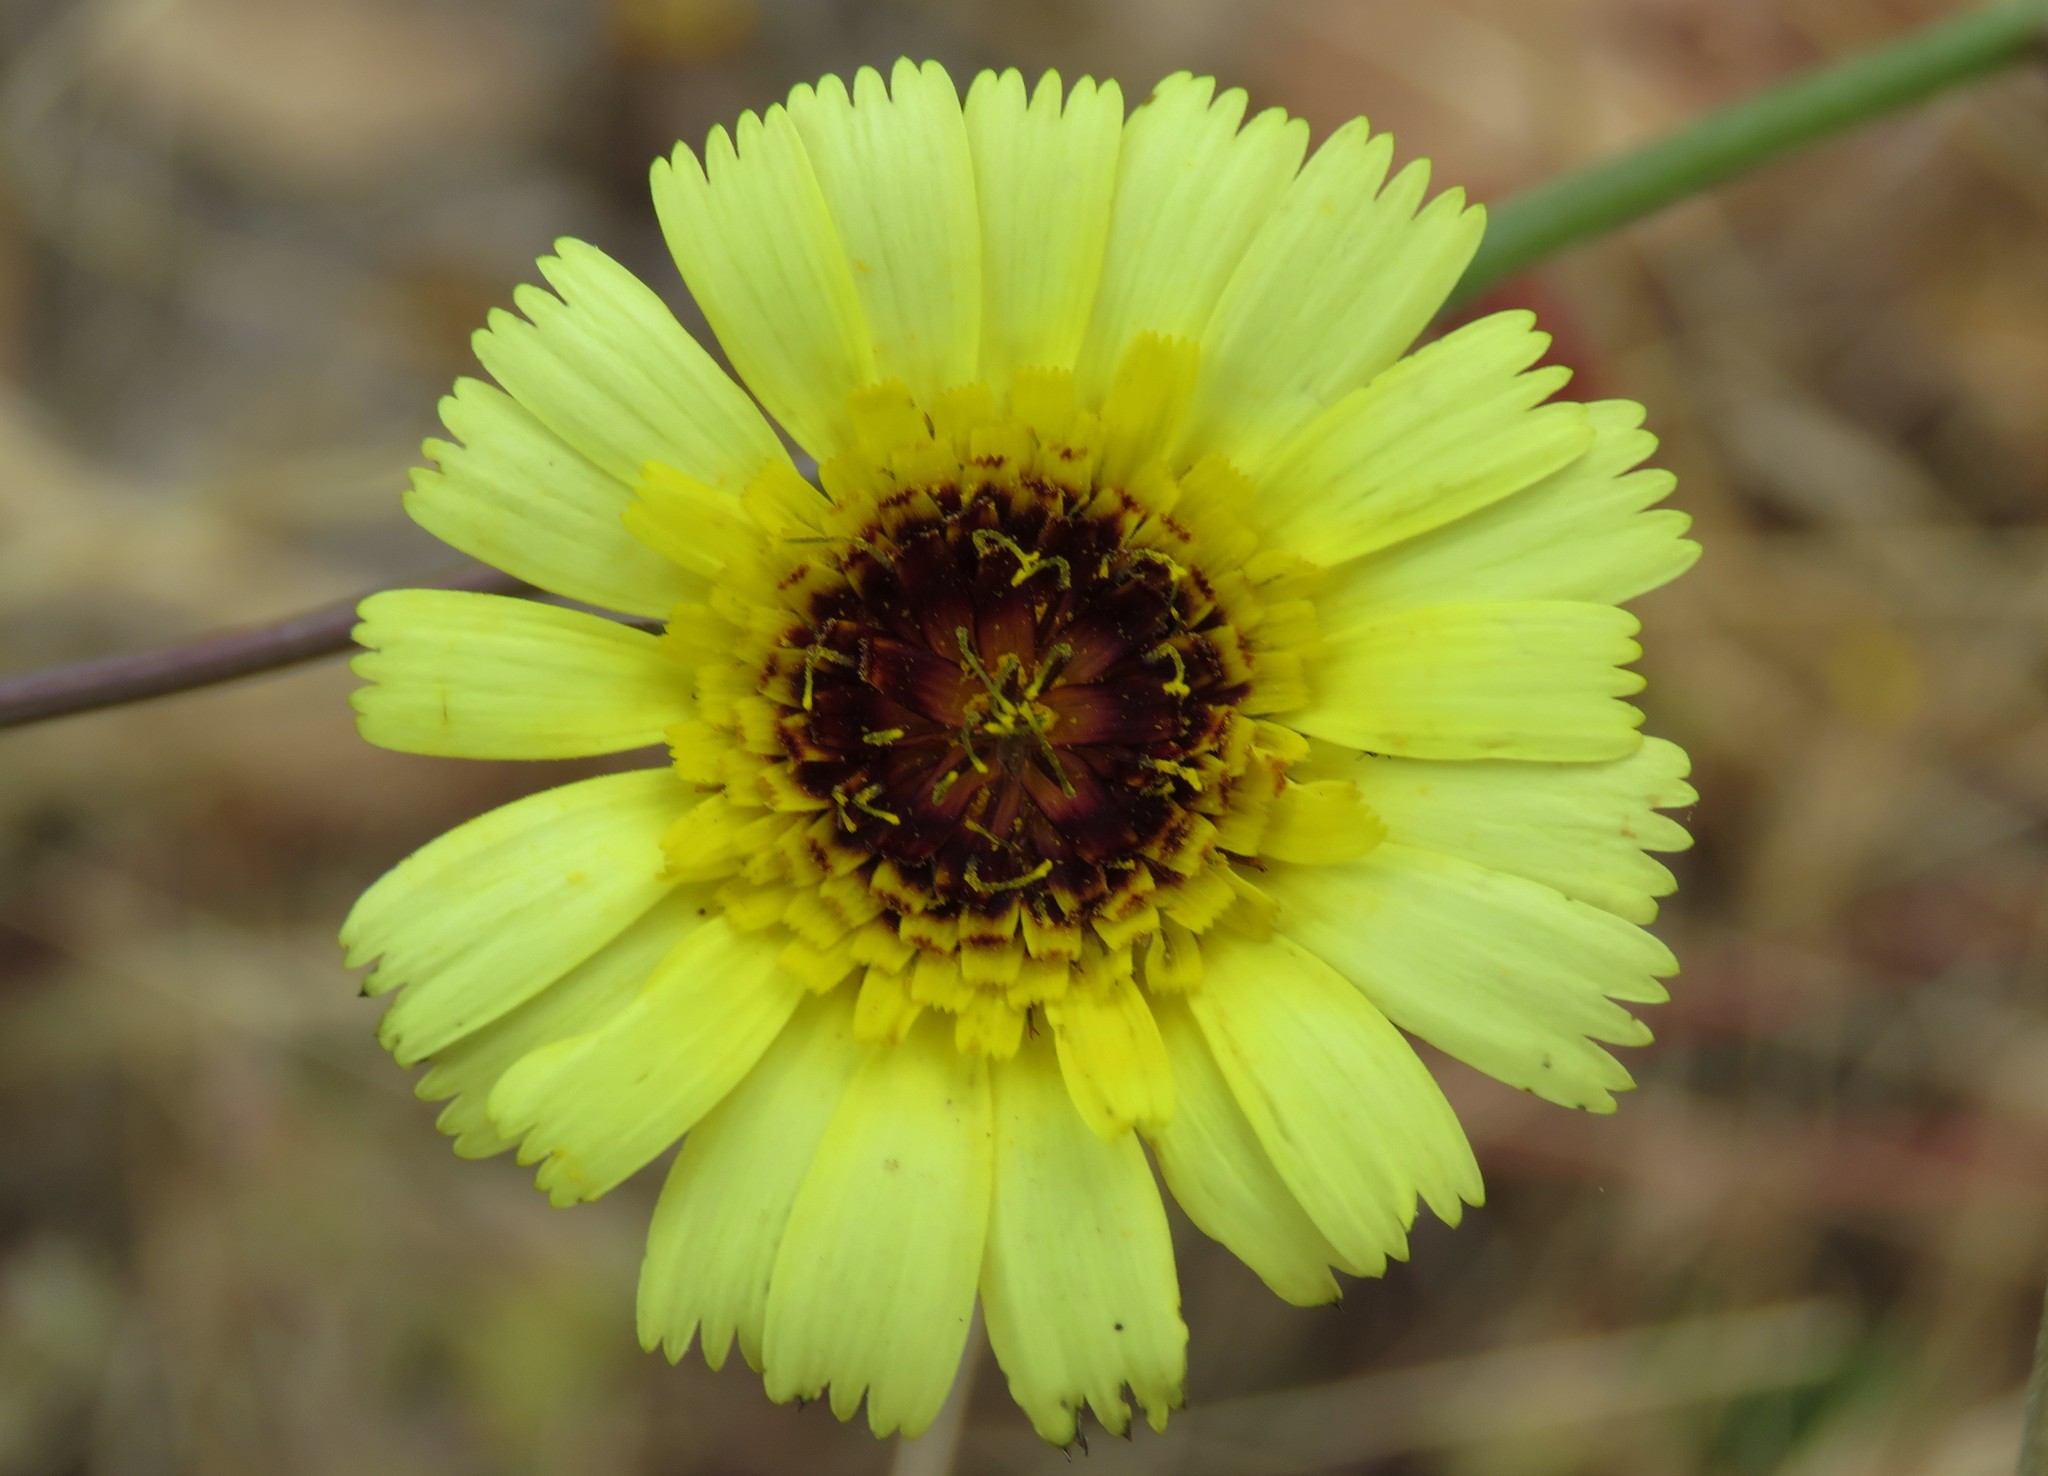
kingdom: Plantae
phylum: Tracheophyta
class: Magnoliopsida
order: Asterales
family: Asteraceae
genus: Tolpis
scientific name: Tolpis barbata
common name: Yellow hawkweed
